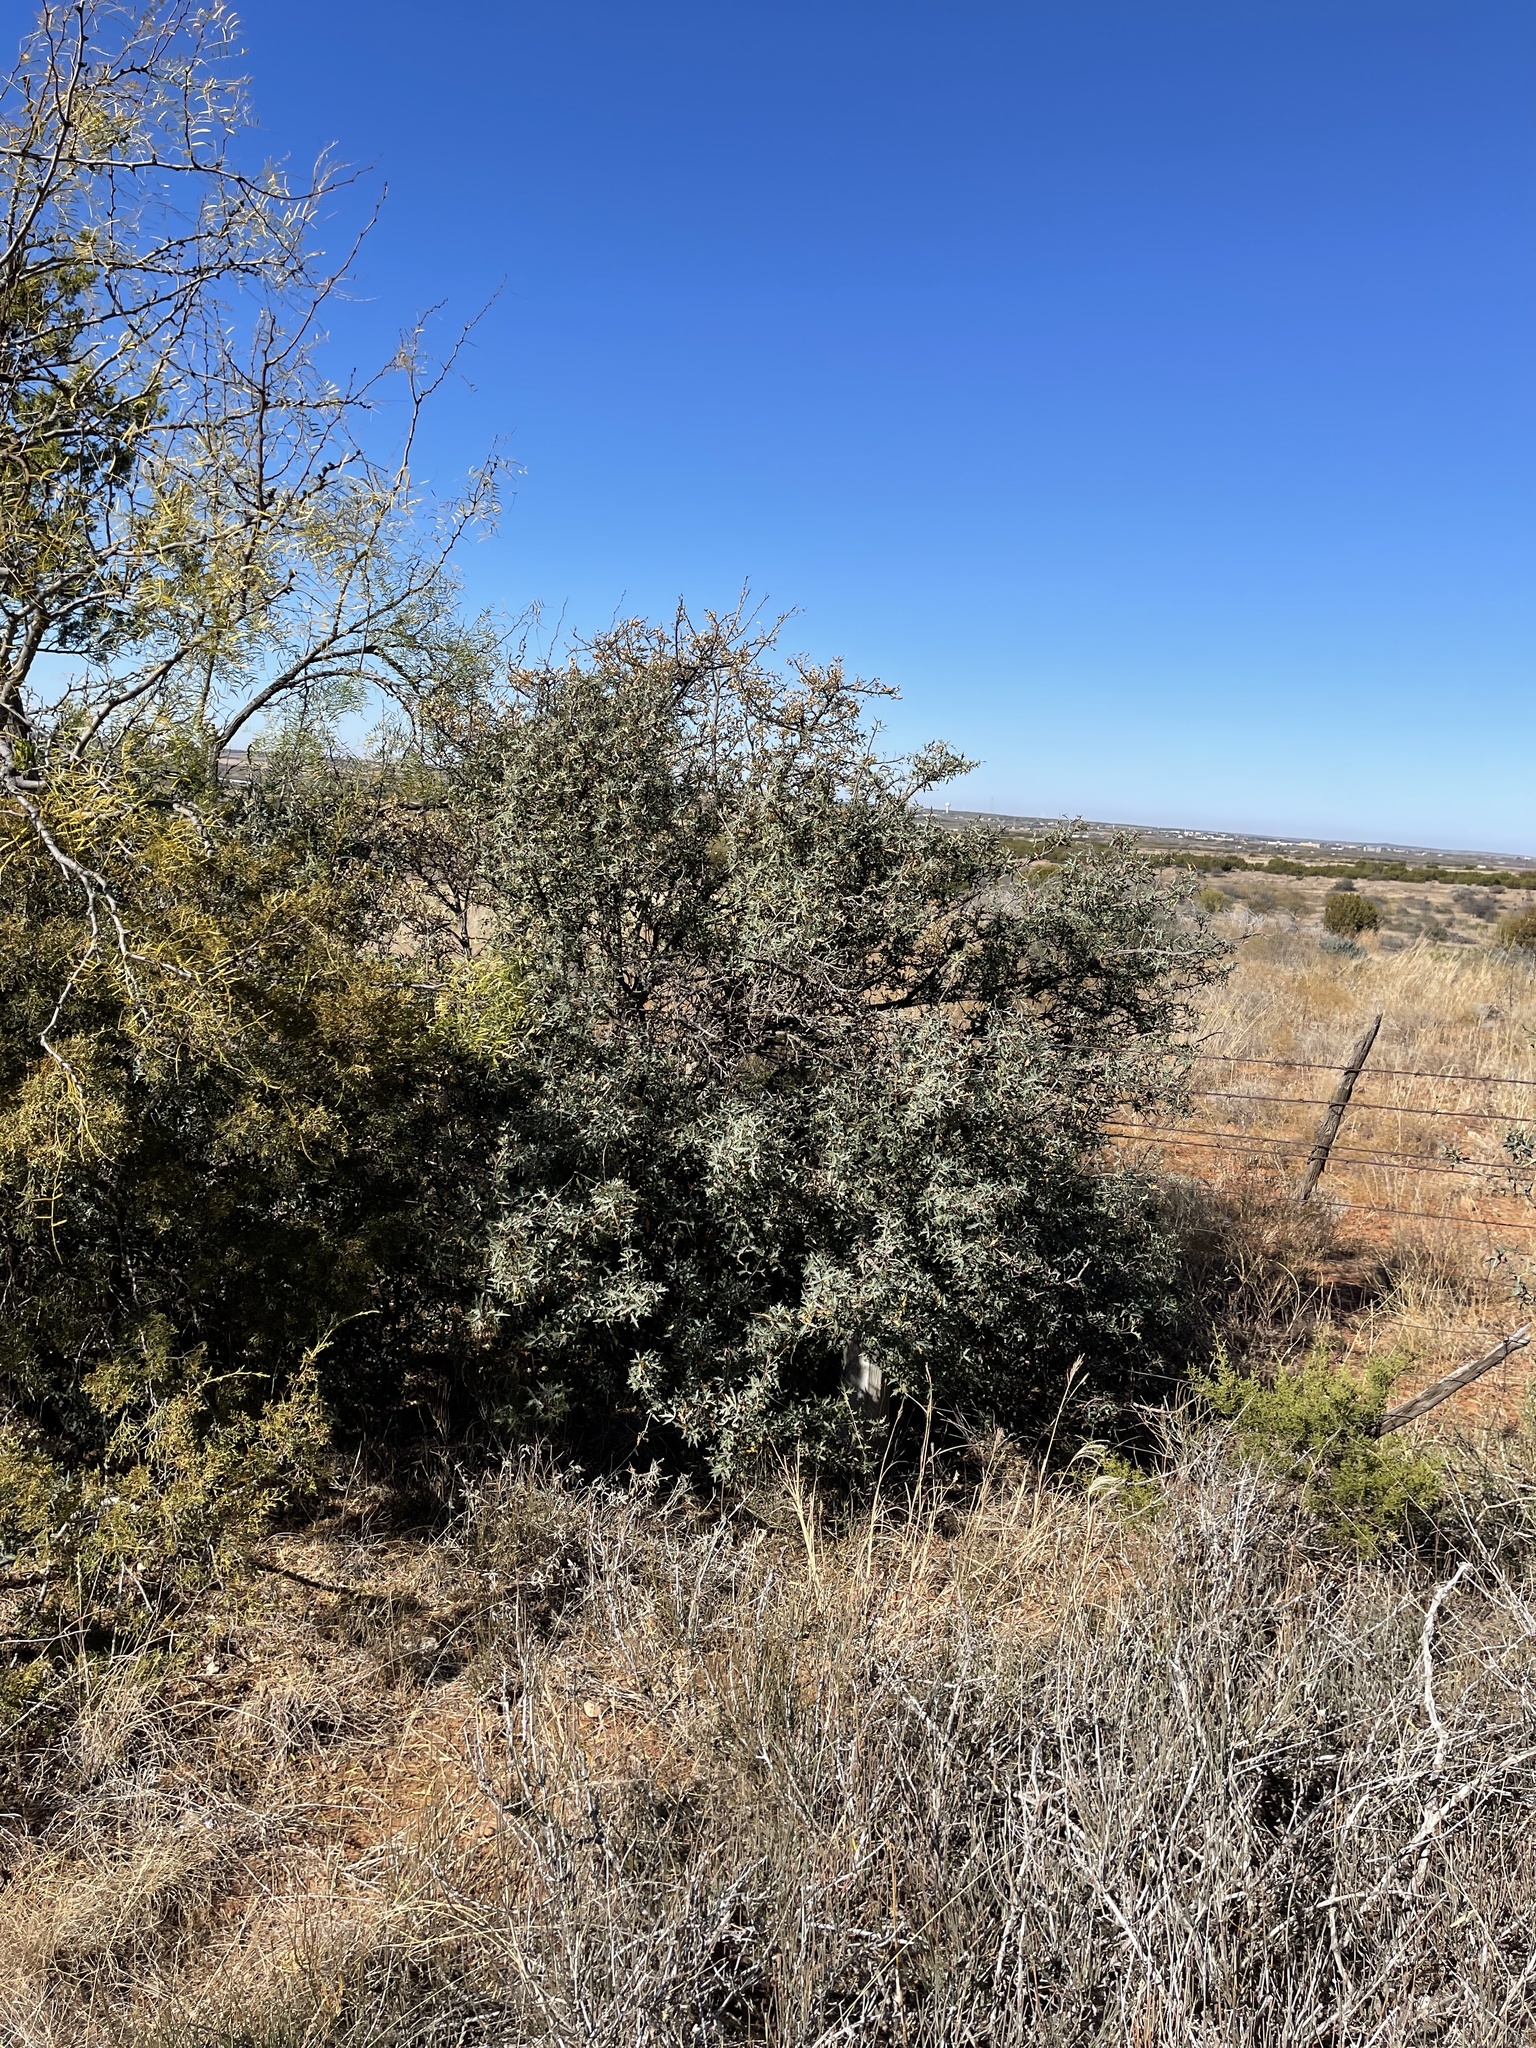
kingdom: Plantae
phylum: Tracheophyta
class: Magnoliopsida
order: Ranunculales
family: Berberidaceae
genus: Alloberberis
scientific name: Alloberberis trifoliolata
